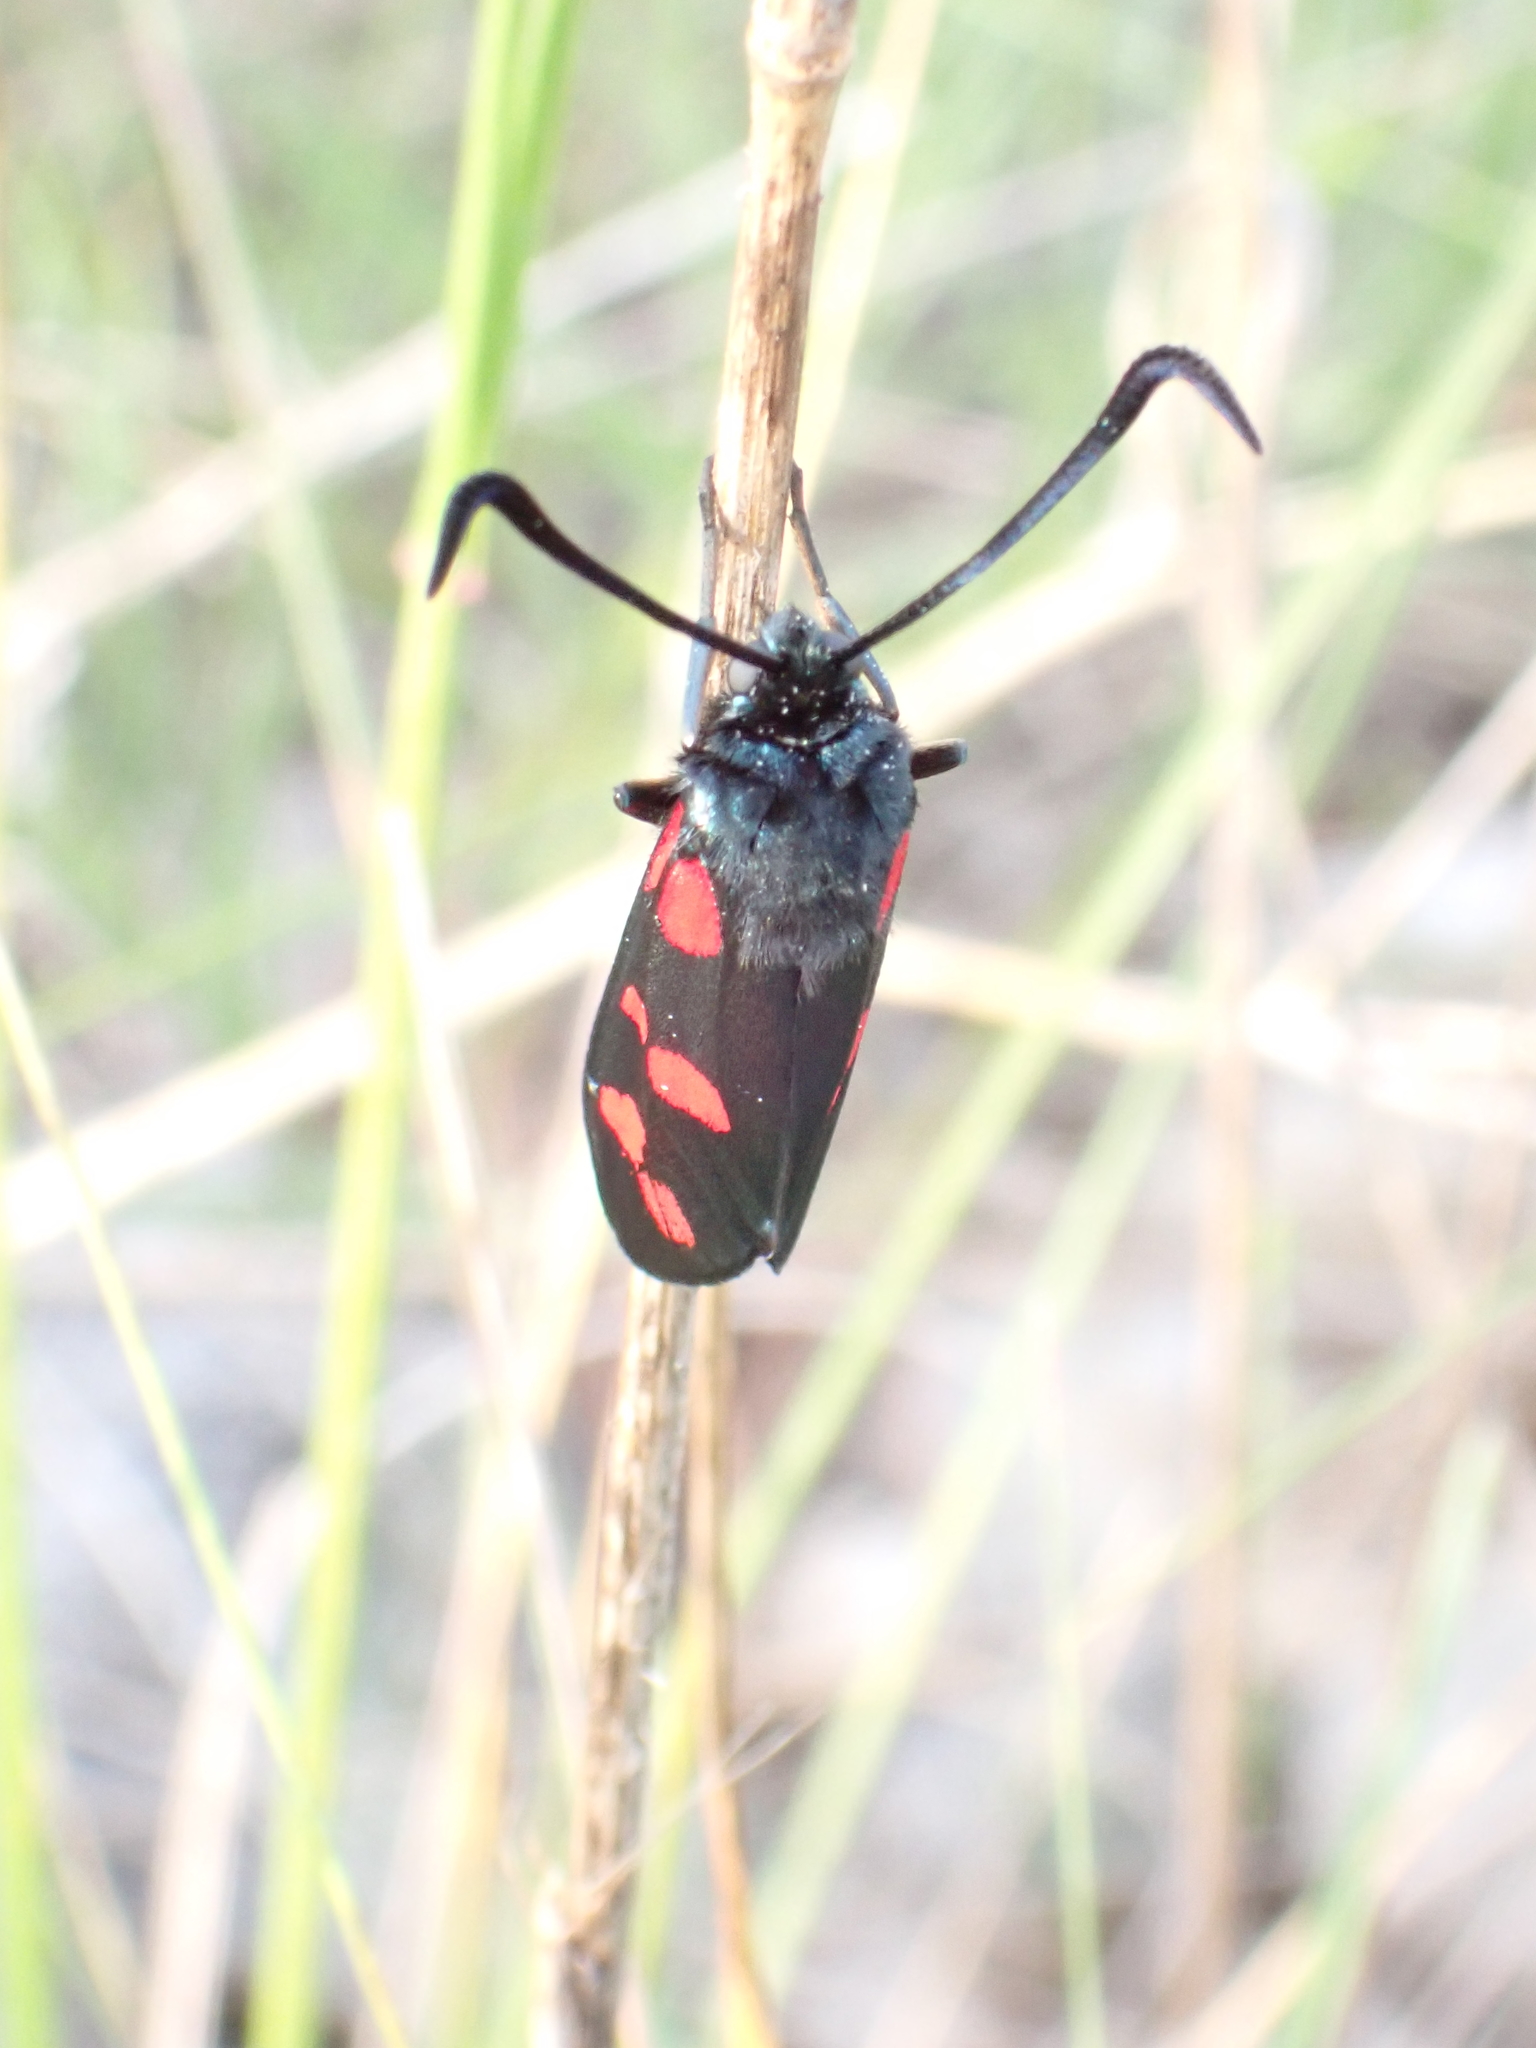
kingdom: Animalia
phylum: Arthropoda
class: Insecta
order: Lepidoptera
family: Zygaenidae
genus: Zygaena
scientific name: Zygaena filipendulae
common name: Six-spot burnet
